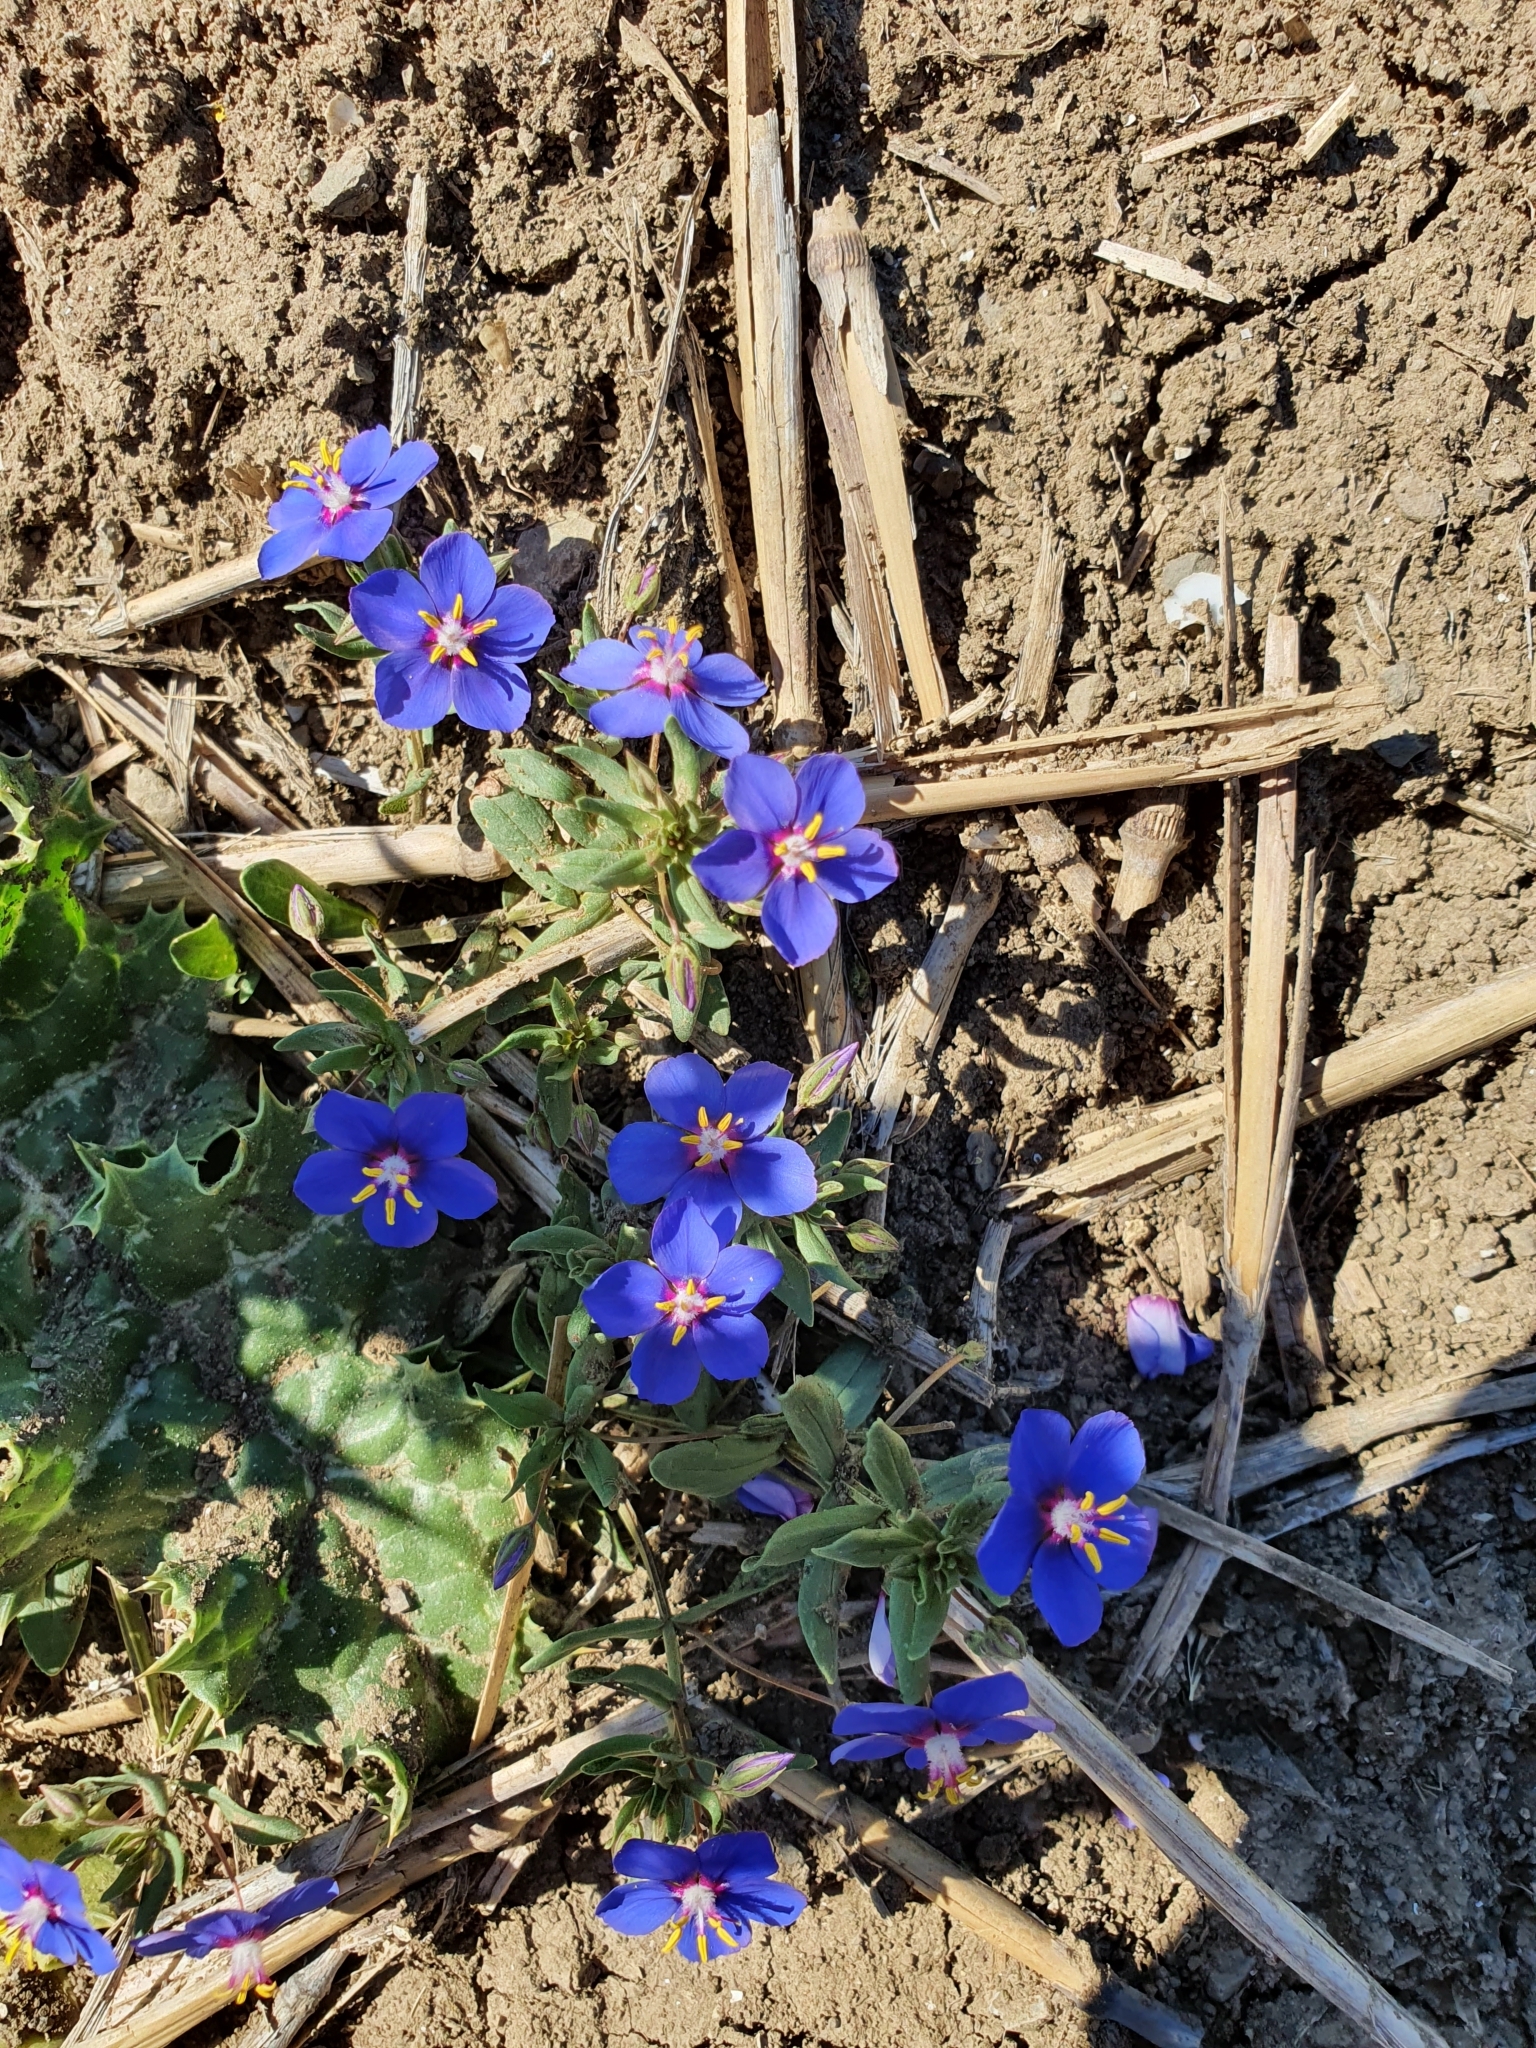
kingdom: Plantae
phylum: Tracheophyta
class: Magnoliopsida
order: Ericales
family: Primulaceae
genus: Lysimachia
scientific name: Lysimachia loeflingii
